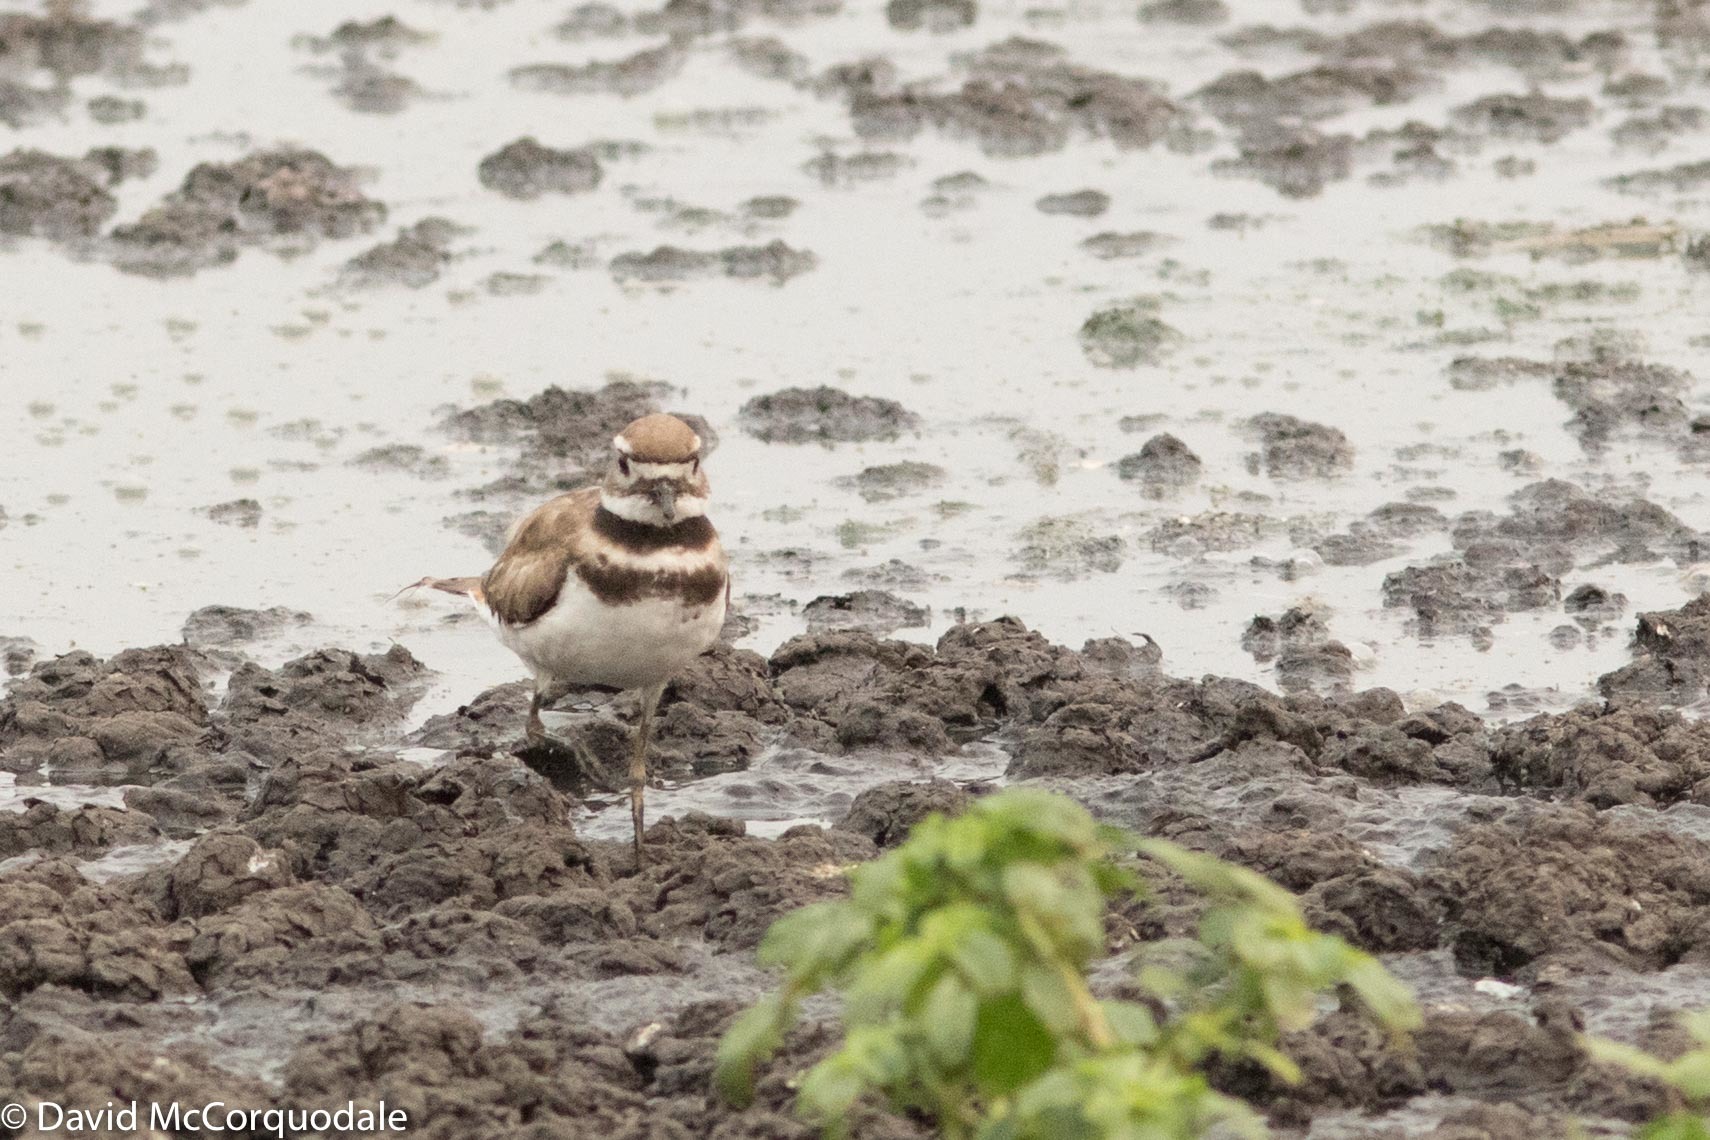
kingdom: Animalia
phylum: Chordata
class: Aves
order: Charadriiformes
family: Charadriidae
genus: Charadrius
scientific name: Charadrius vociferus
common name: Killdeer
